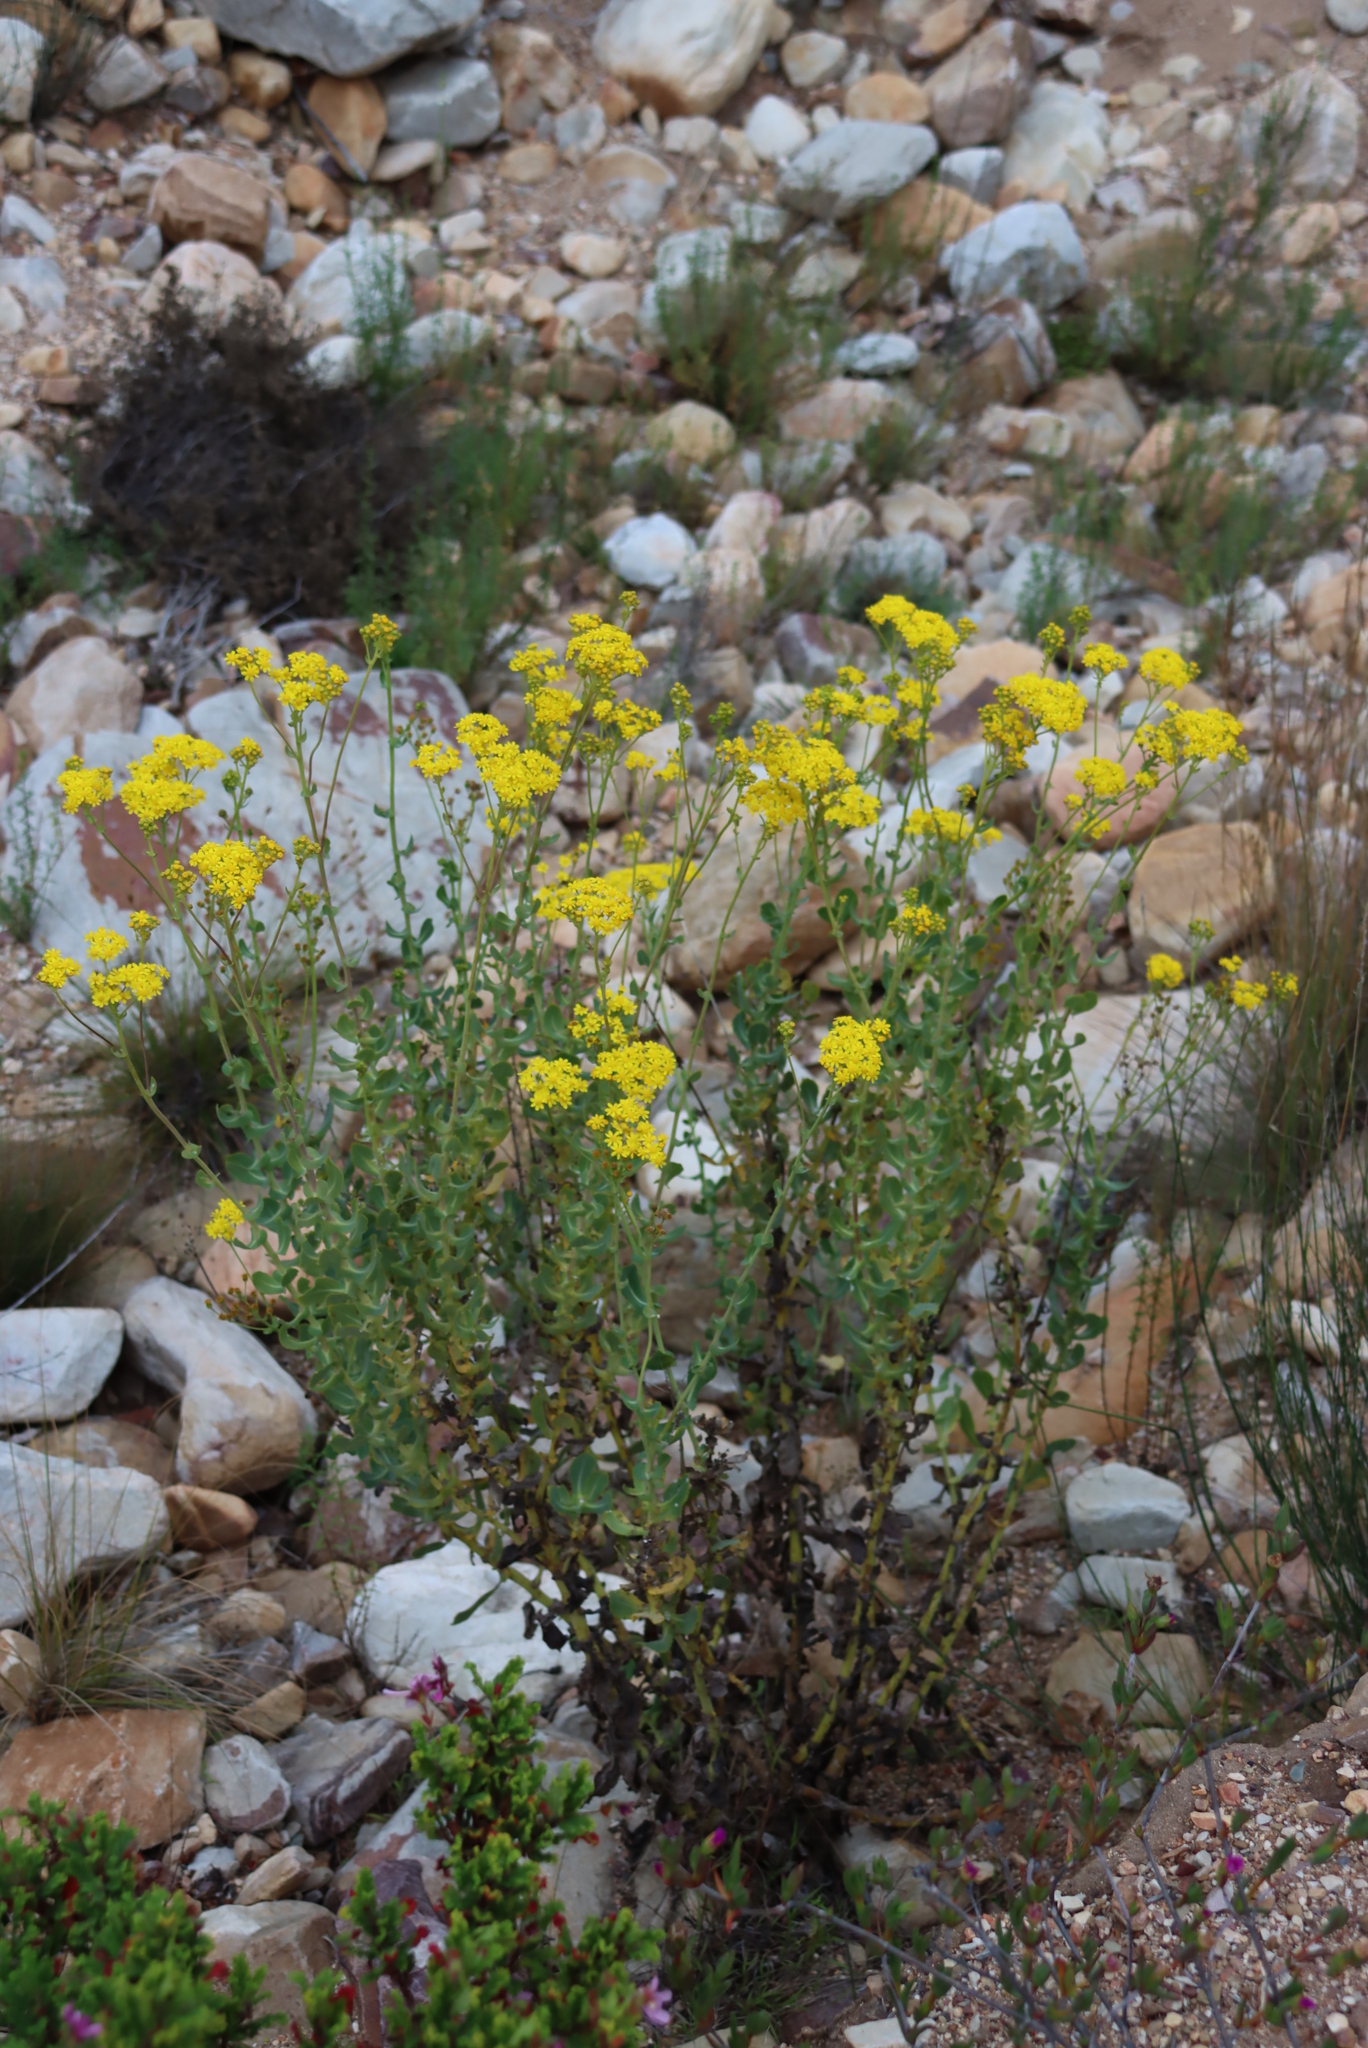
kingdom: Plantae
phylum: Tracheophyta
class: Magnoliopsida
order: Asterales
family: Asteraceae
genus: Othonna
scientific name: Othonna parviflora
